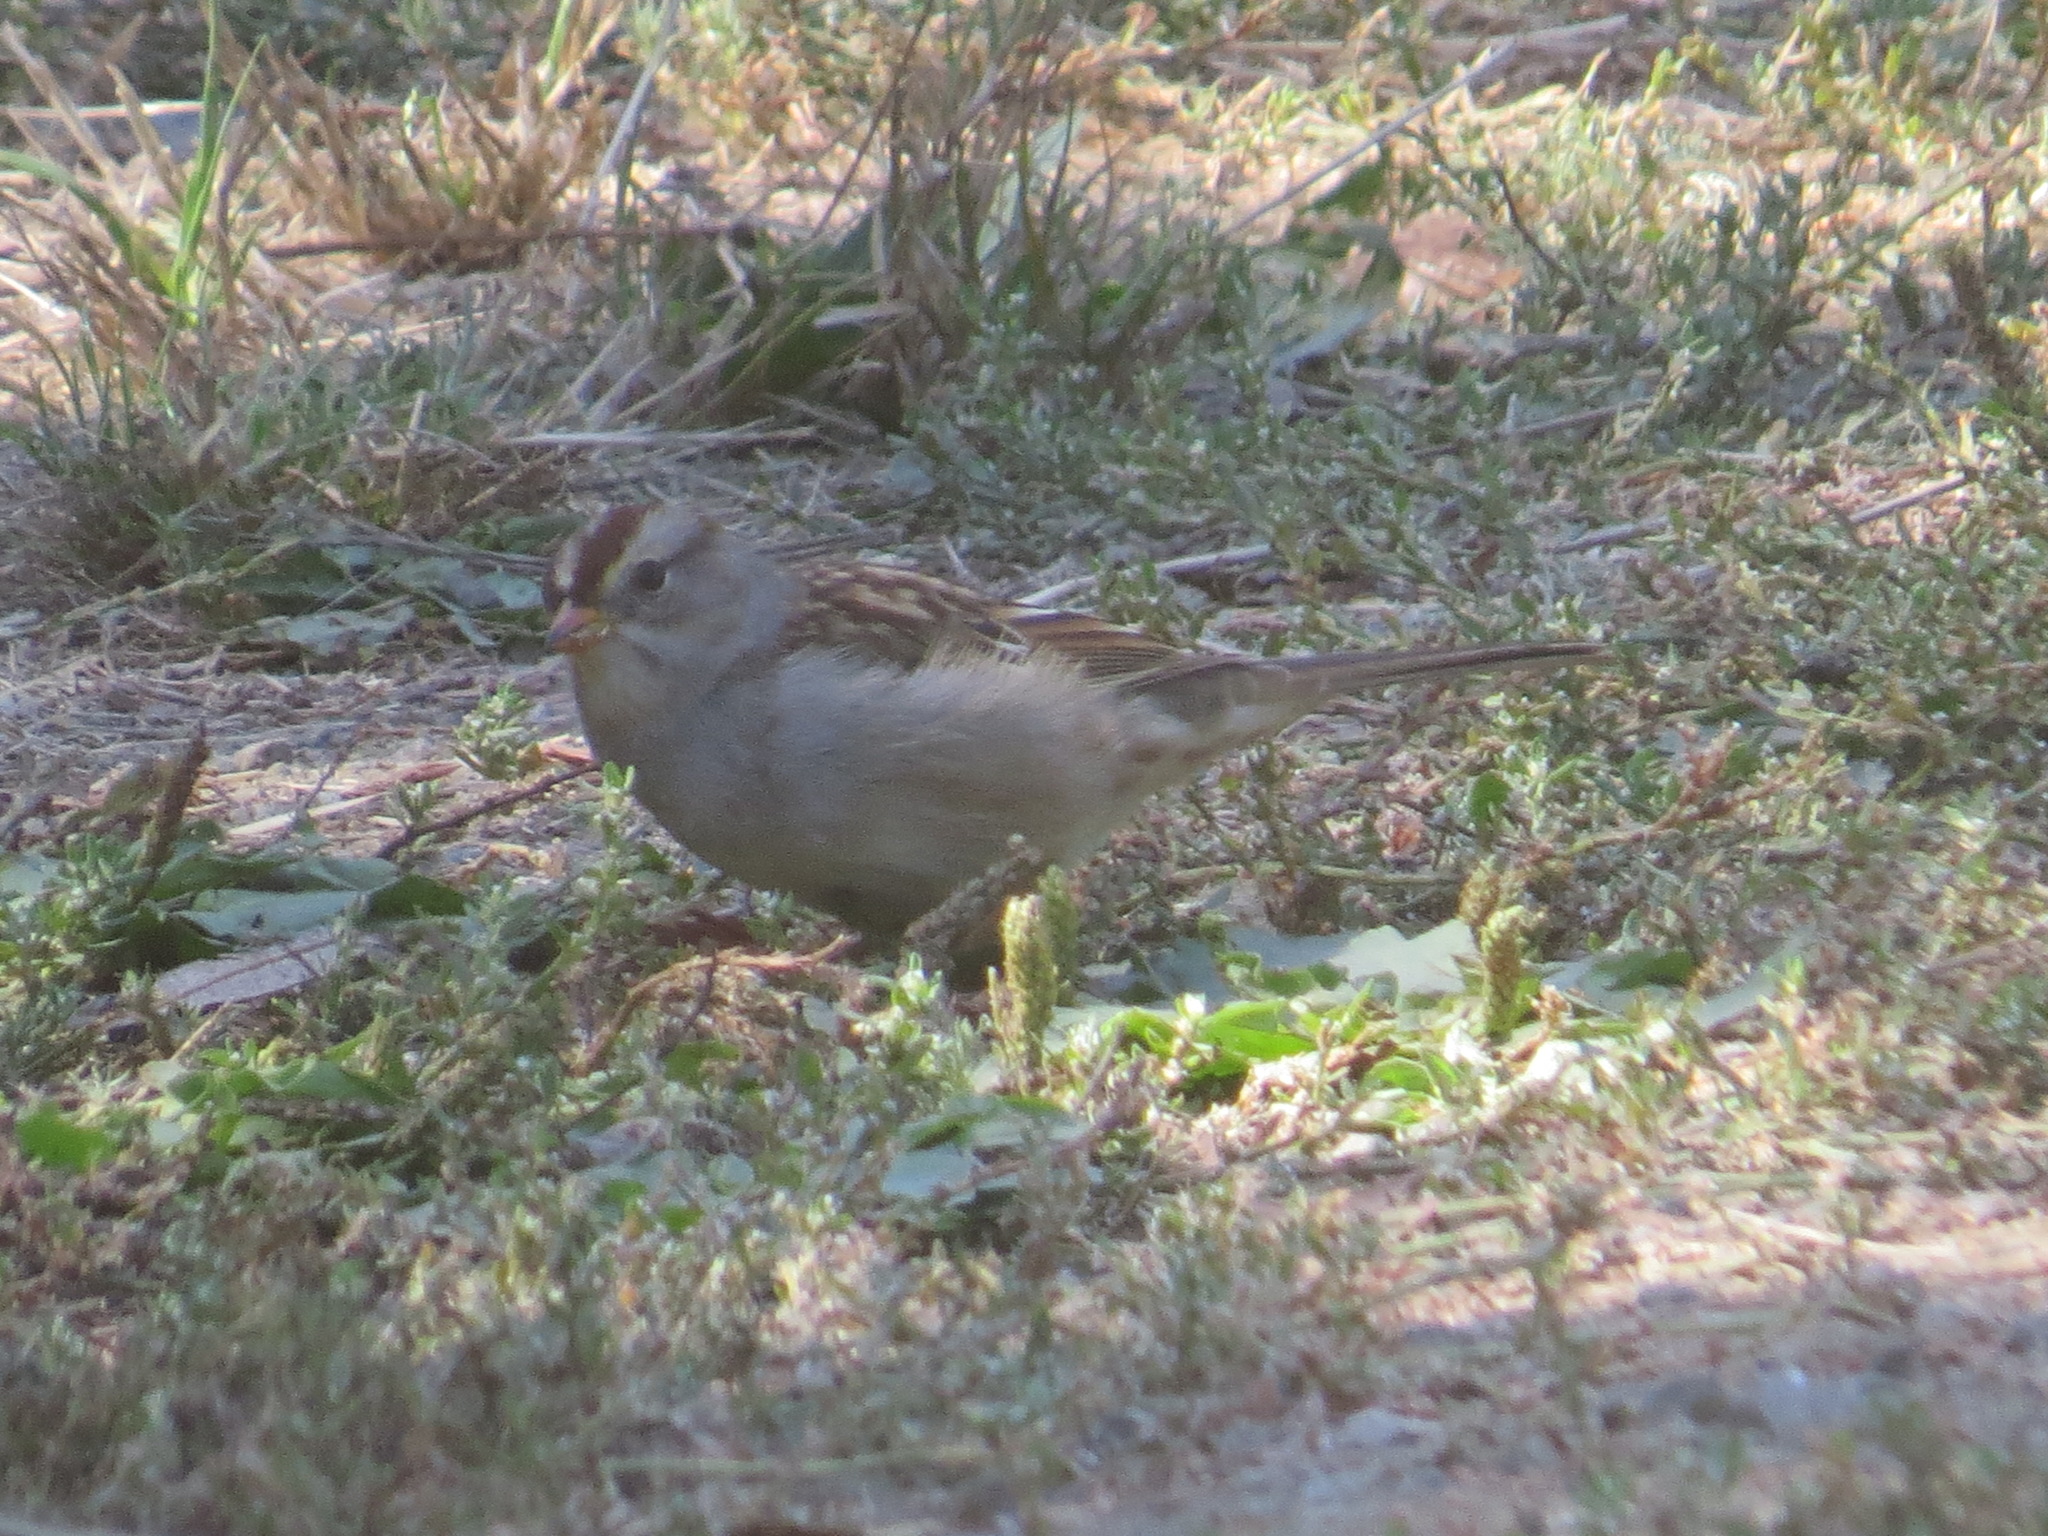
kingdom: Animalia
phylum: Chordata
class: Aves
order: Passeriformes
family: Passerellidae
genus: Zonotrichia
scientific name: Zonotrichia leucophrys
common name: White-crowned sparrow
